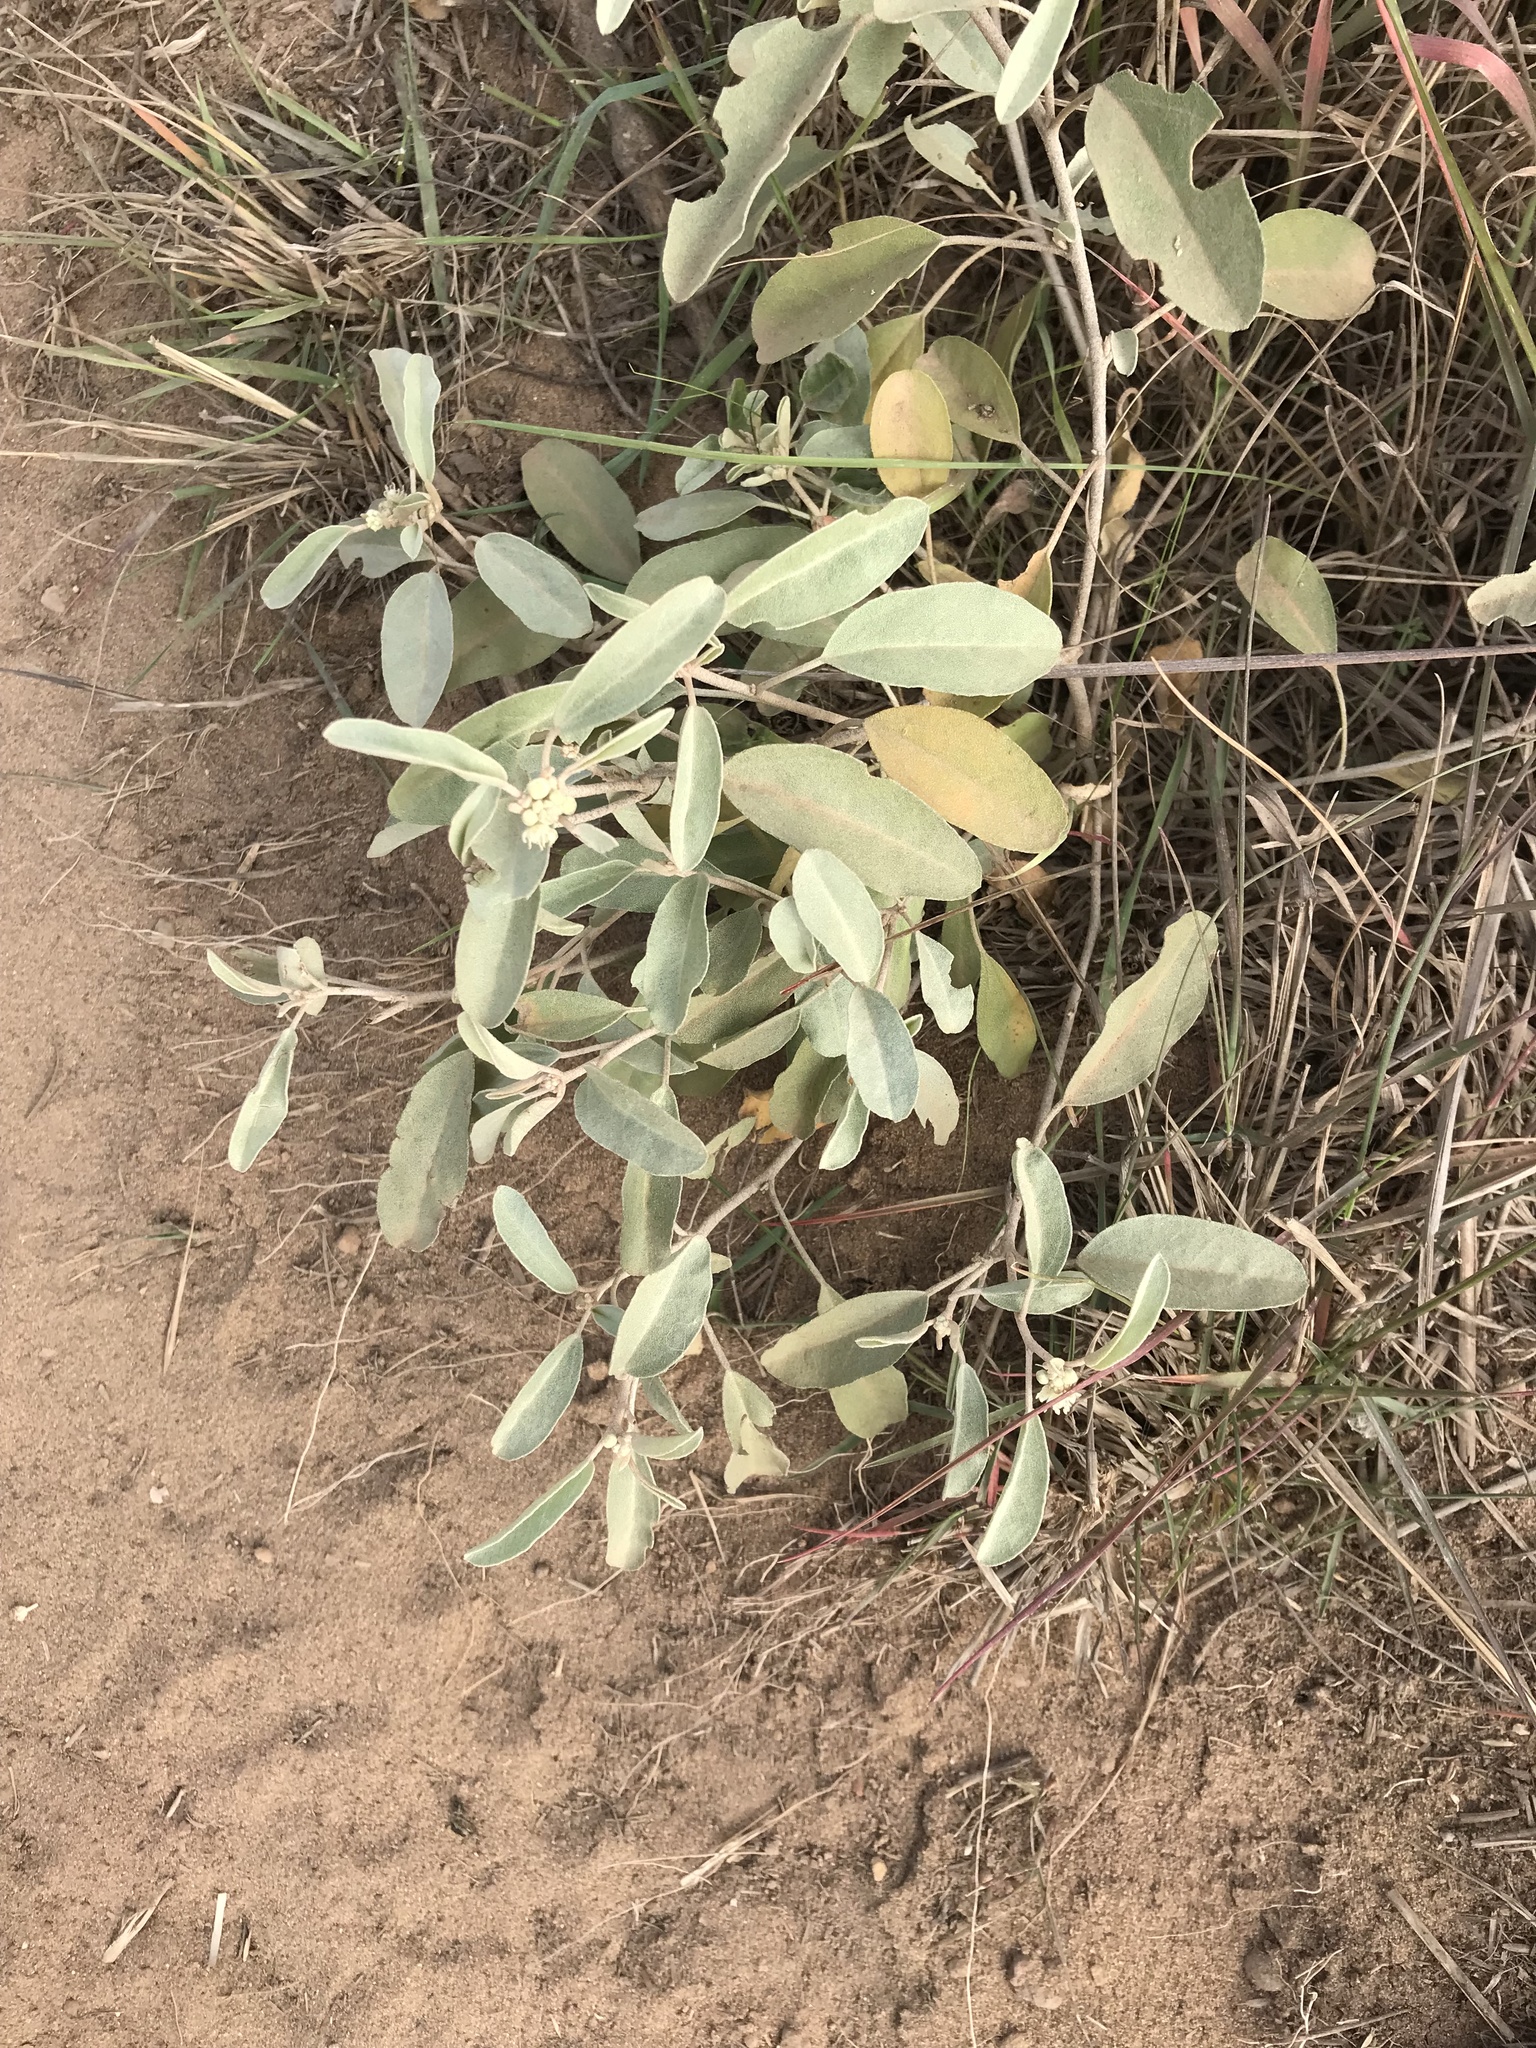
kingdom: Plantae
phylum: Tracheophyta
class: Magnoliopsida
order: Malpighiales
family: Euphorbiaceae
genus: Croton
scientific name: Croton californicus
